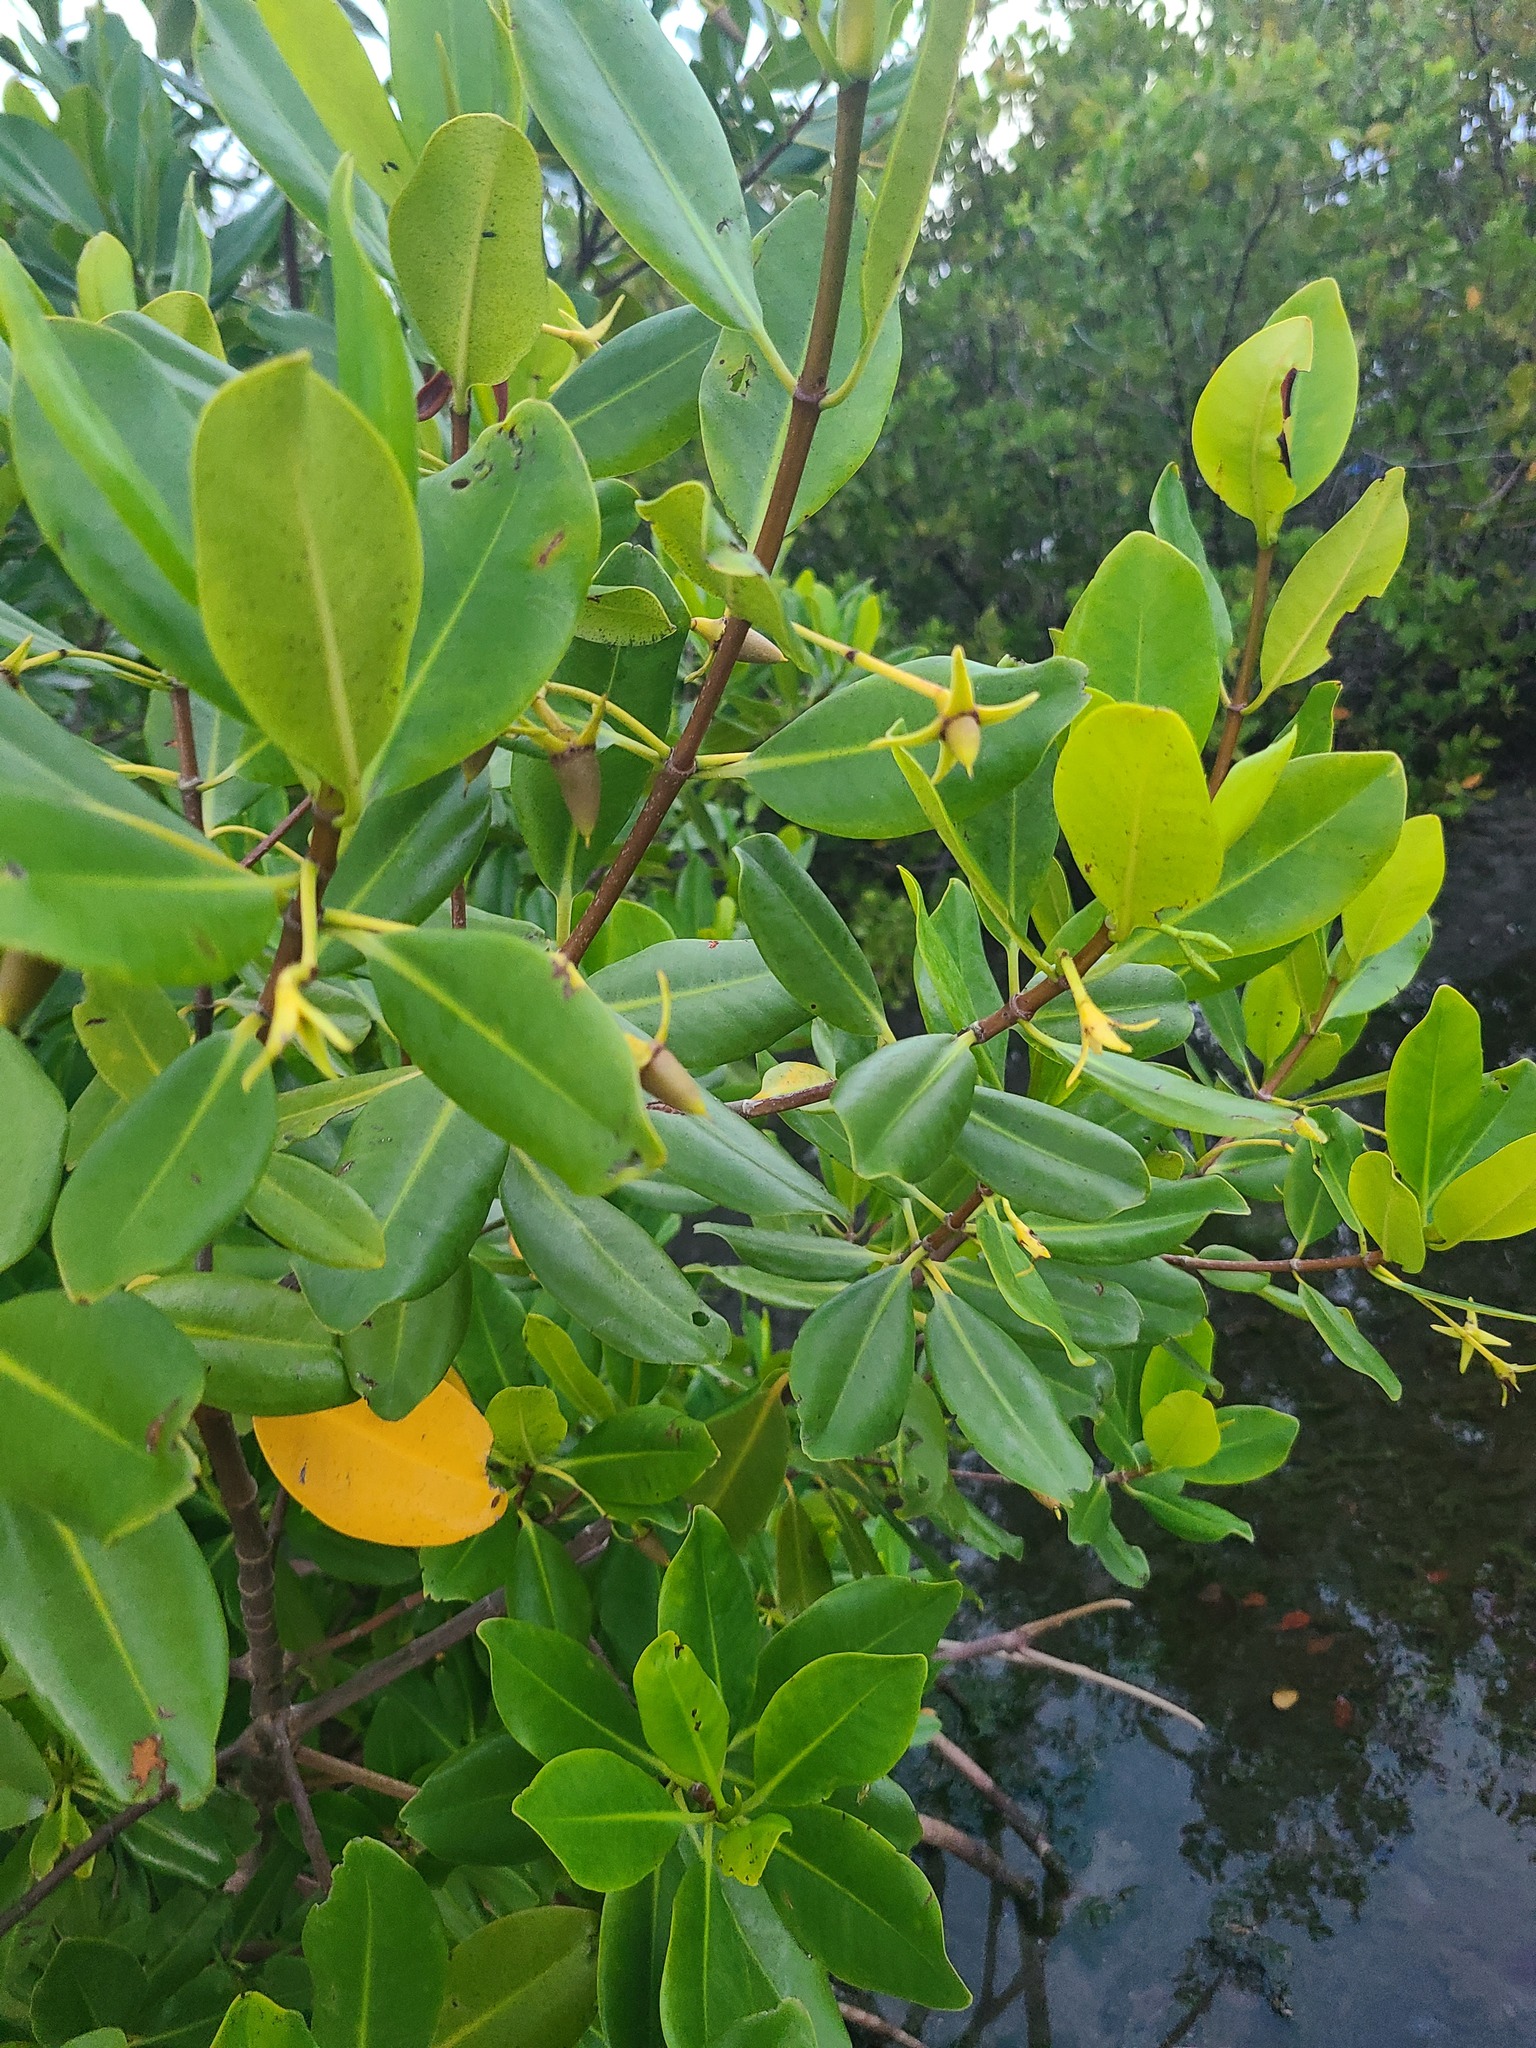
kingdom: Plantae
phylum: Tracheophyta
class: Magnoliopsida
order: Malpighiales
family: Rhizophoraceae
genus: Rhizophora
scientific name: Rhizophora mangle
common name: Red mangrove
